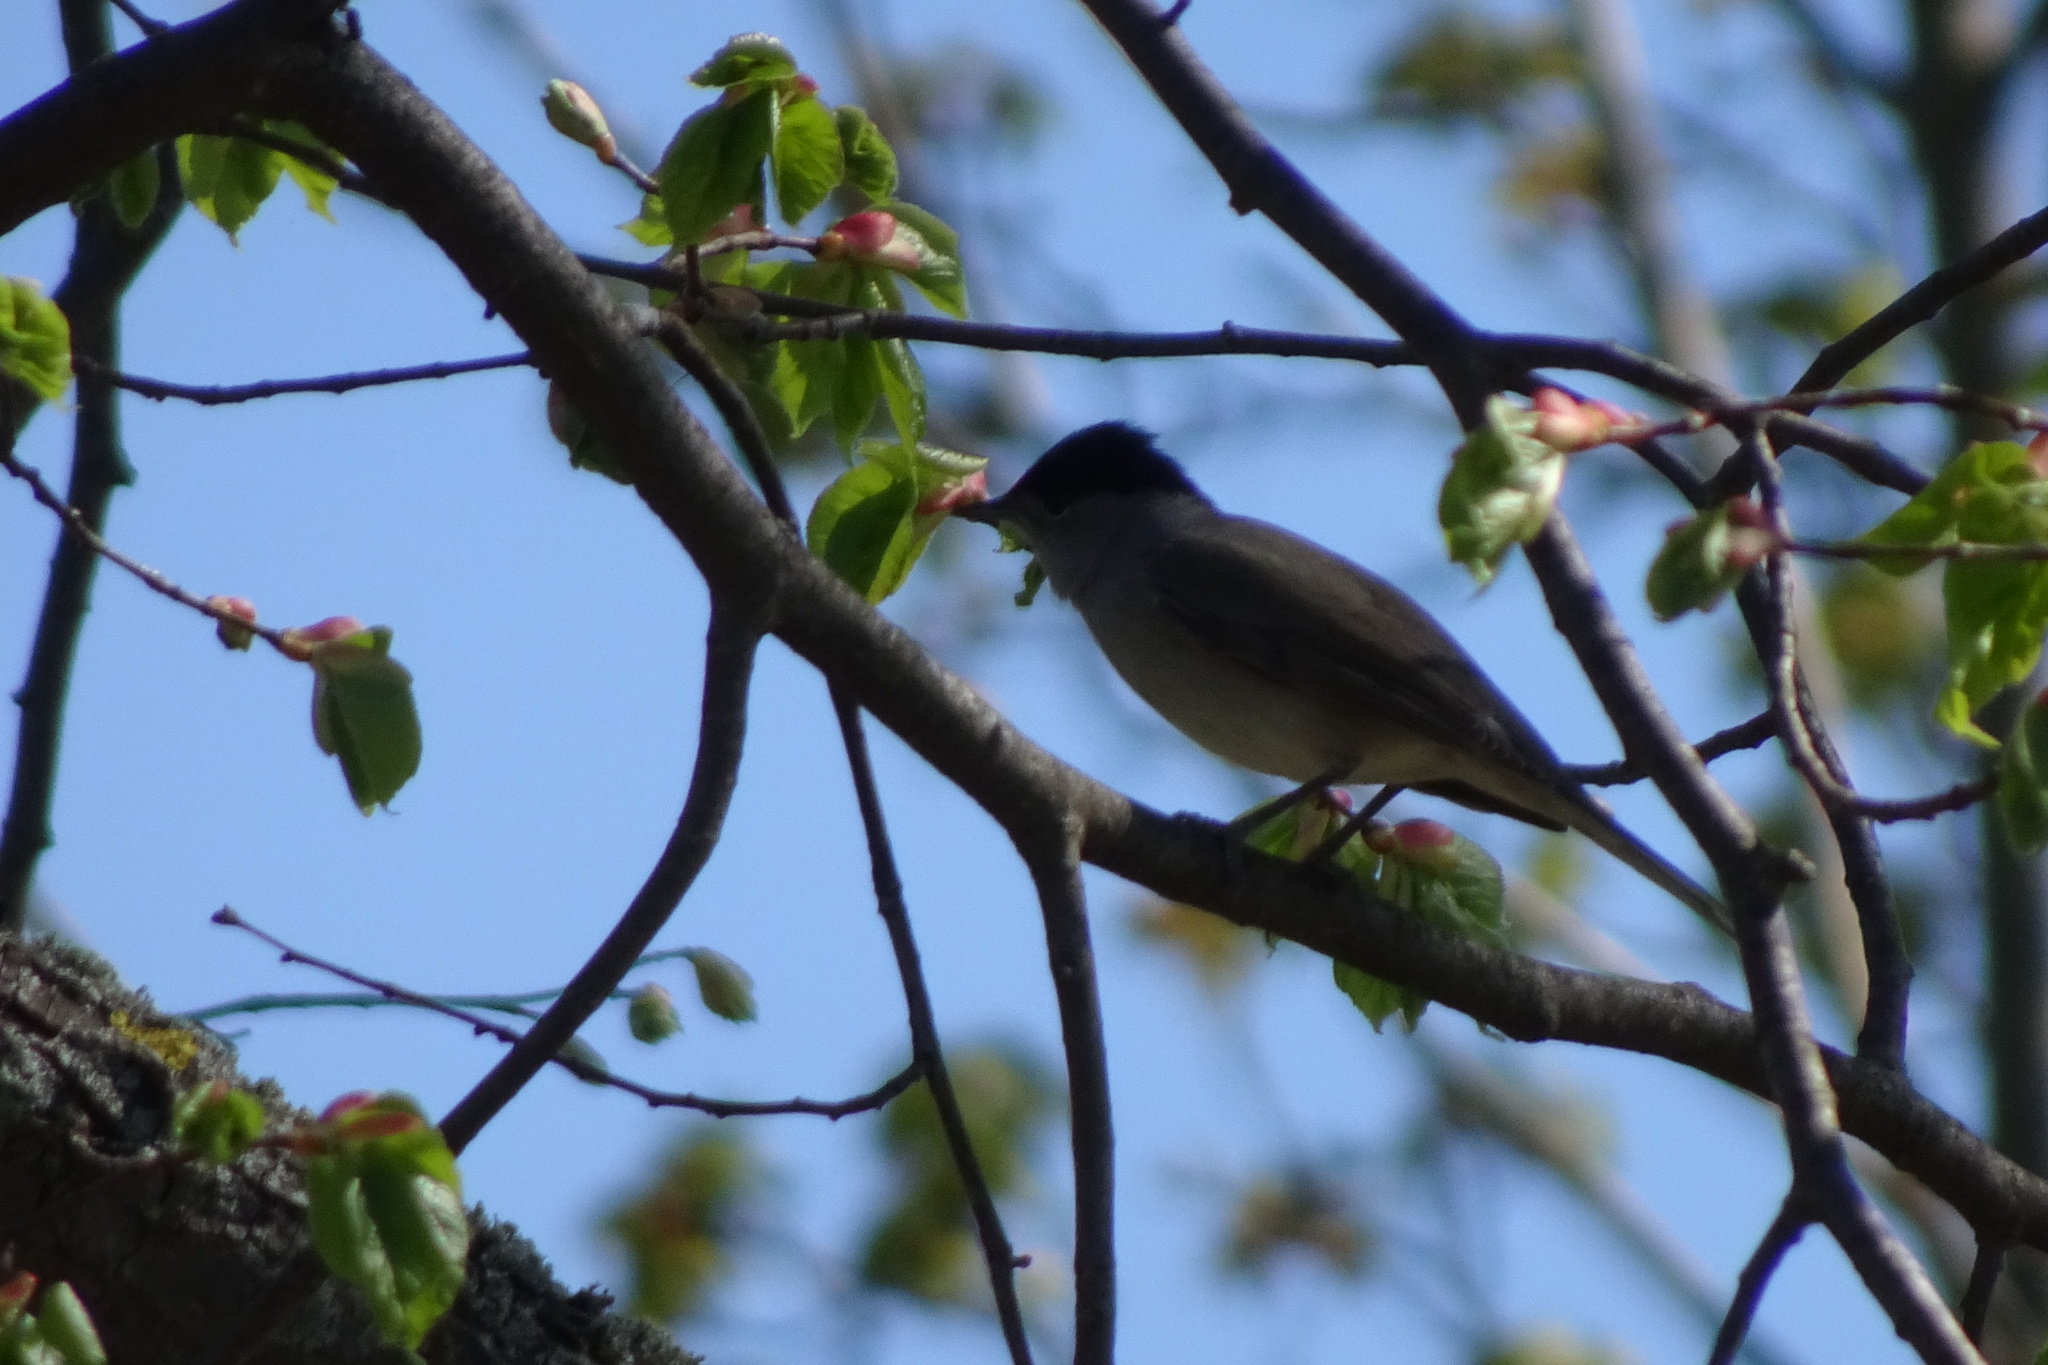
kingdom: Animalia
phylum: Chordata
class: Aves
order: Passeriformes
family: Sylviidae
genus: Sylvia
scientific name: Sylvia atricapilla
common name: Eurasian blackcap
